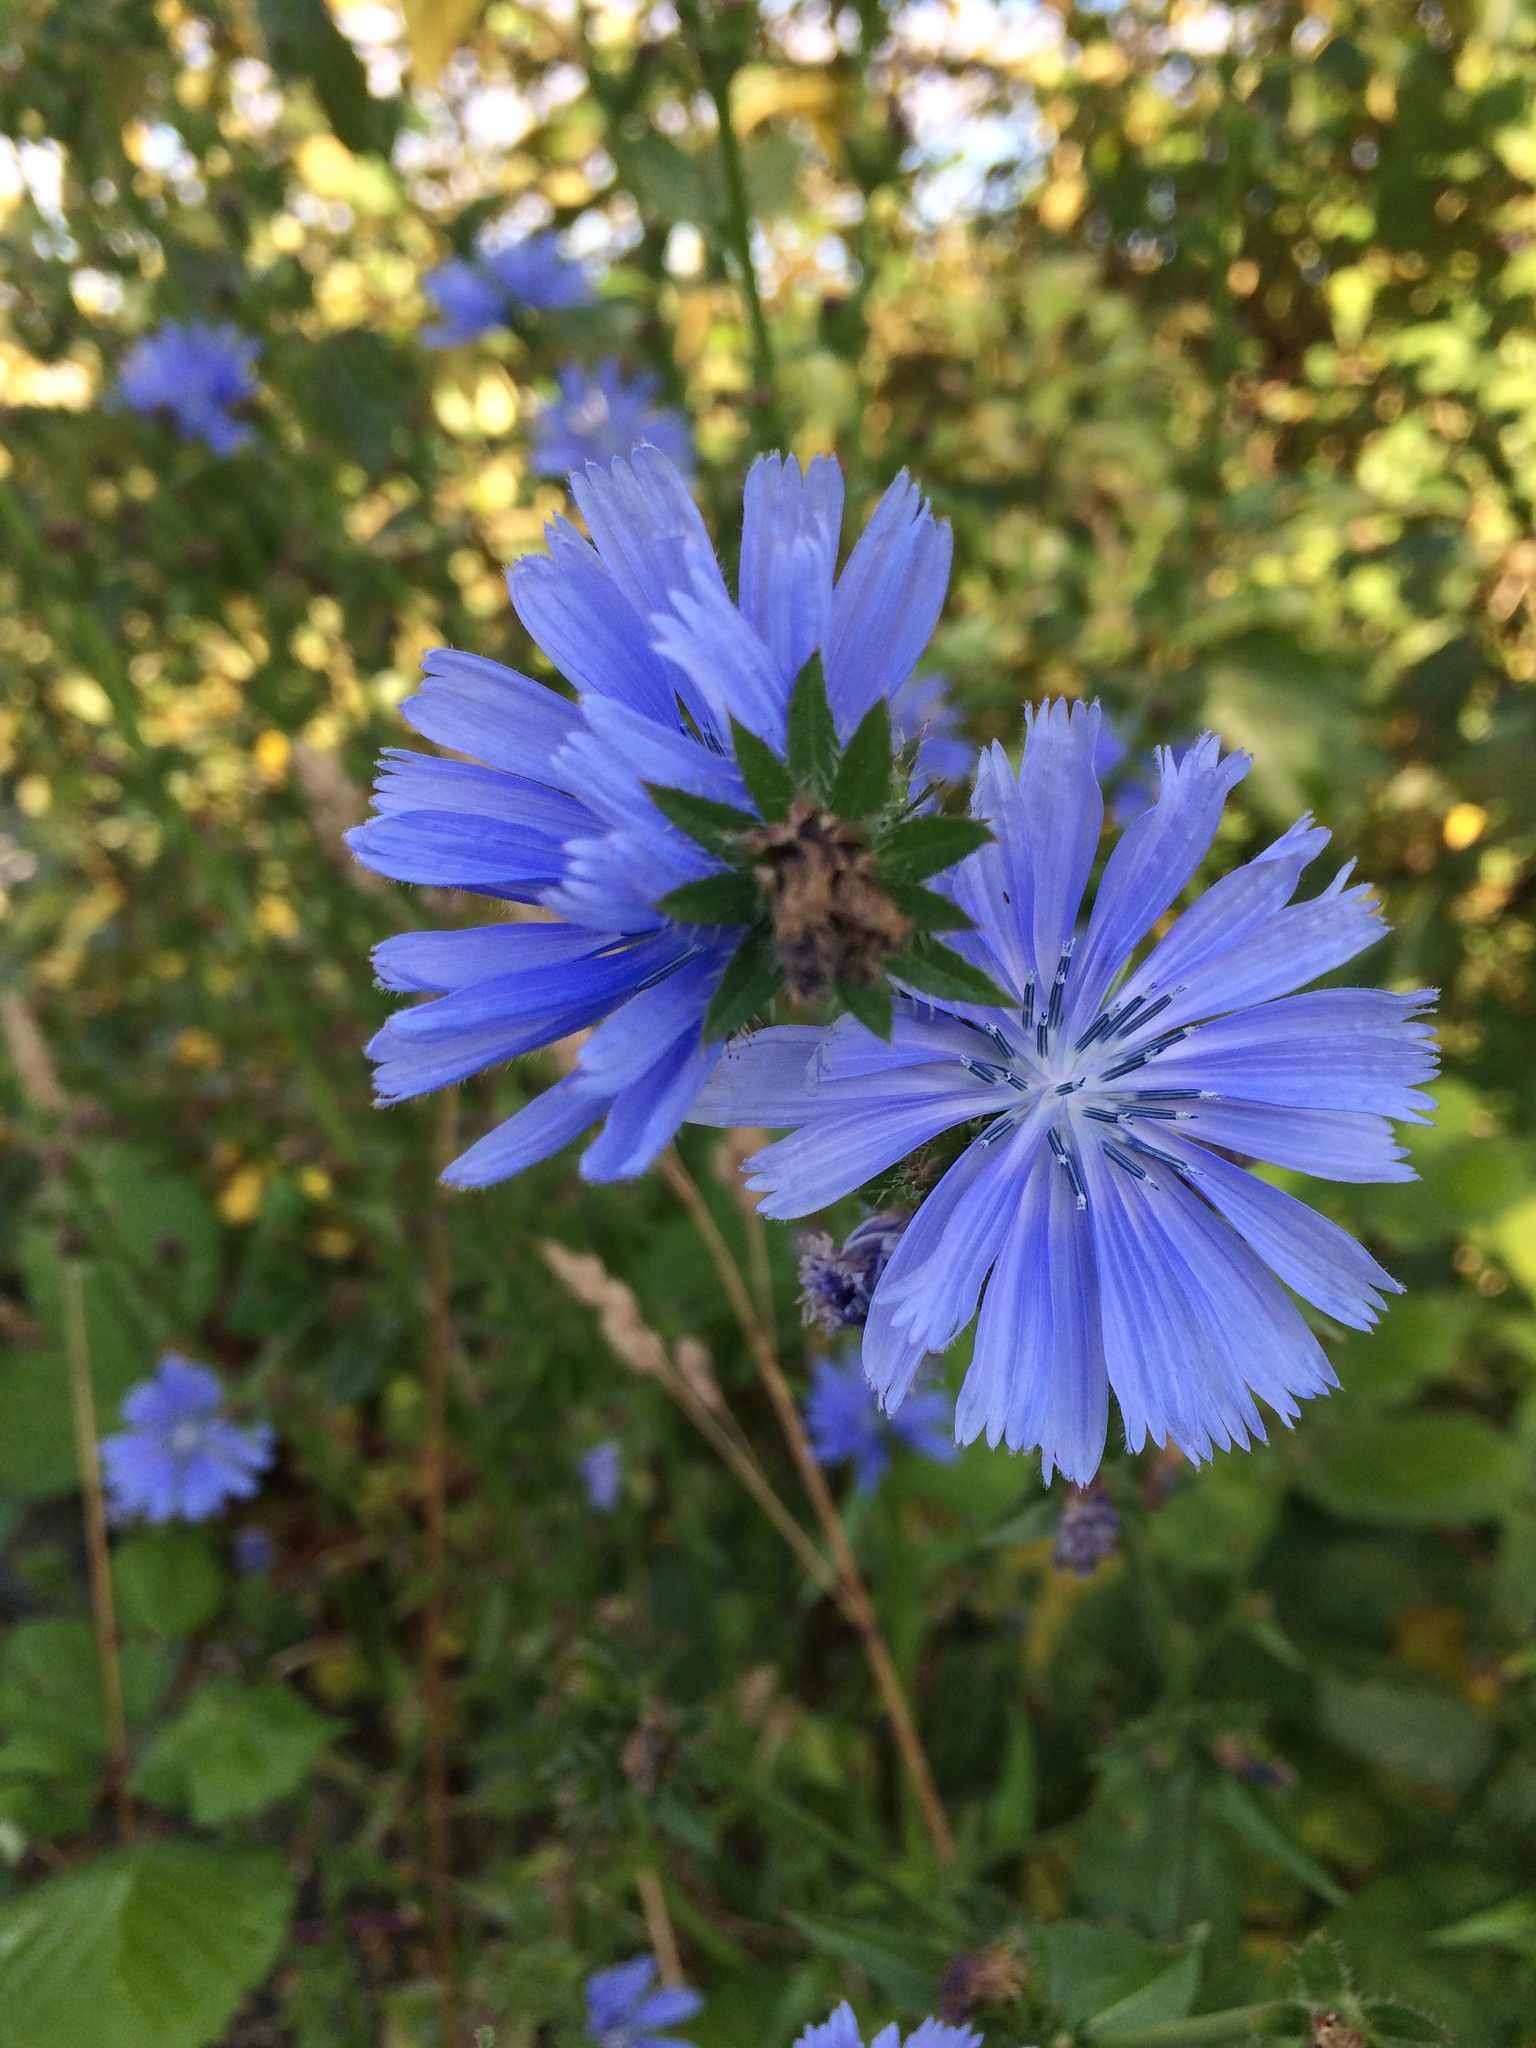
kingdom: Plantae
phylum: Tracheophyta
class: Magnoliopsida
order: Asterales
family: Asteraceae
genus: Cichorium
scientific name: Cichorium intybus
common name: Chicory
